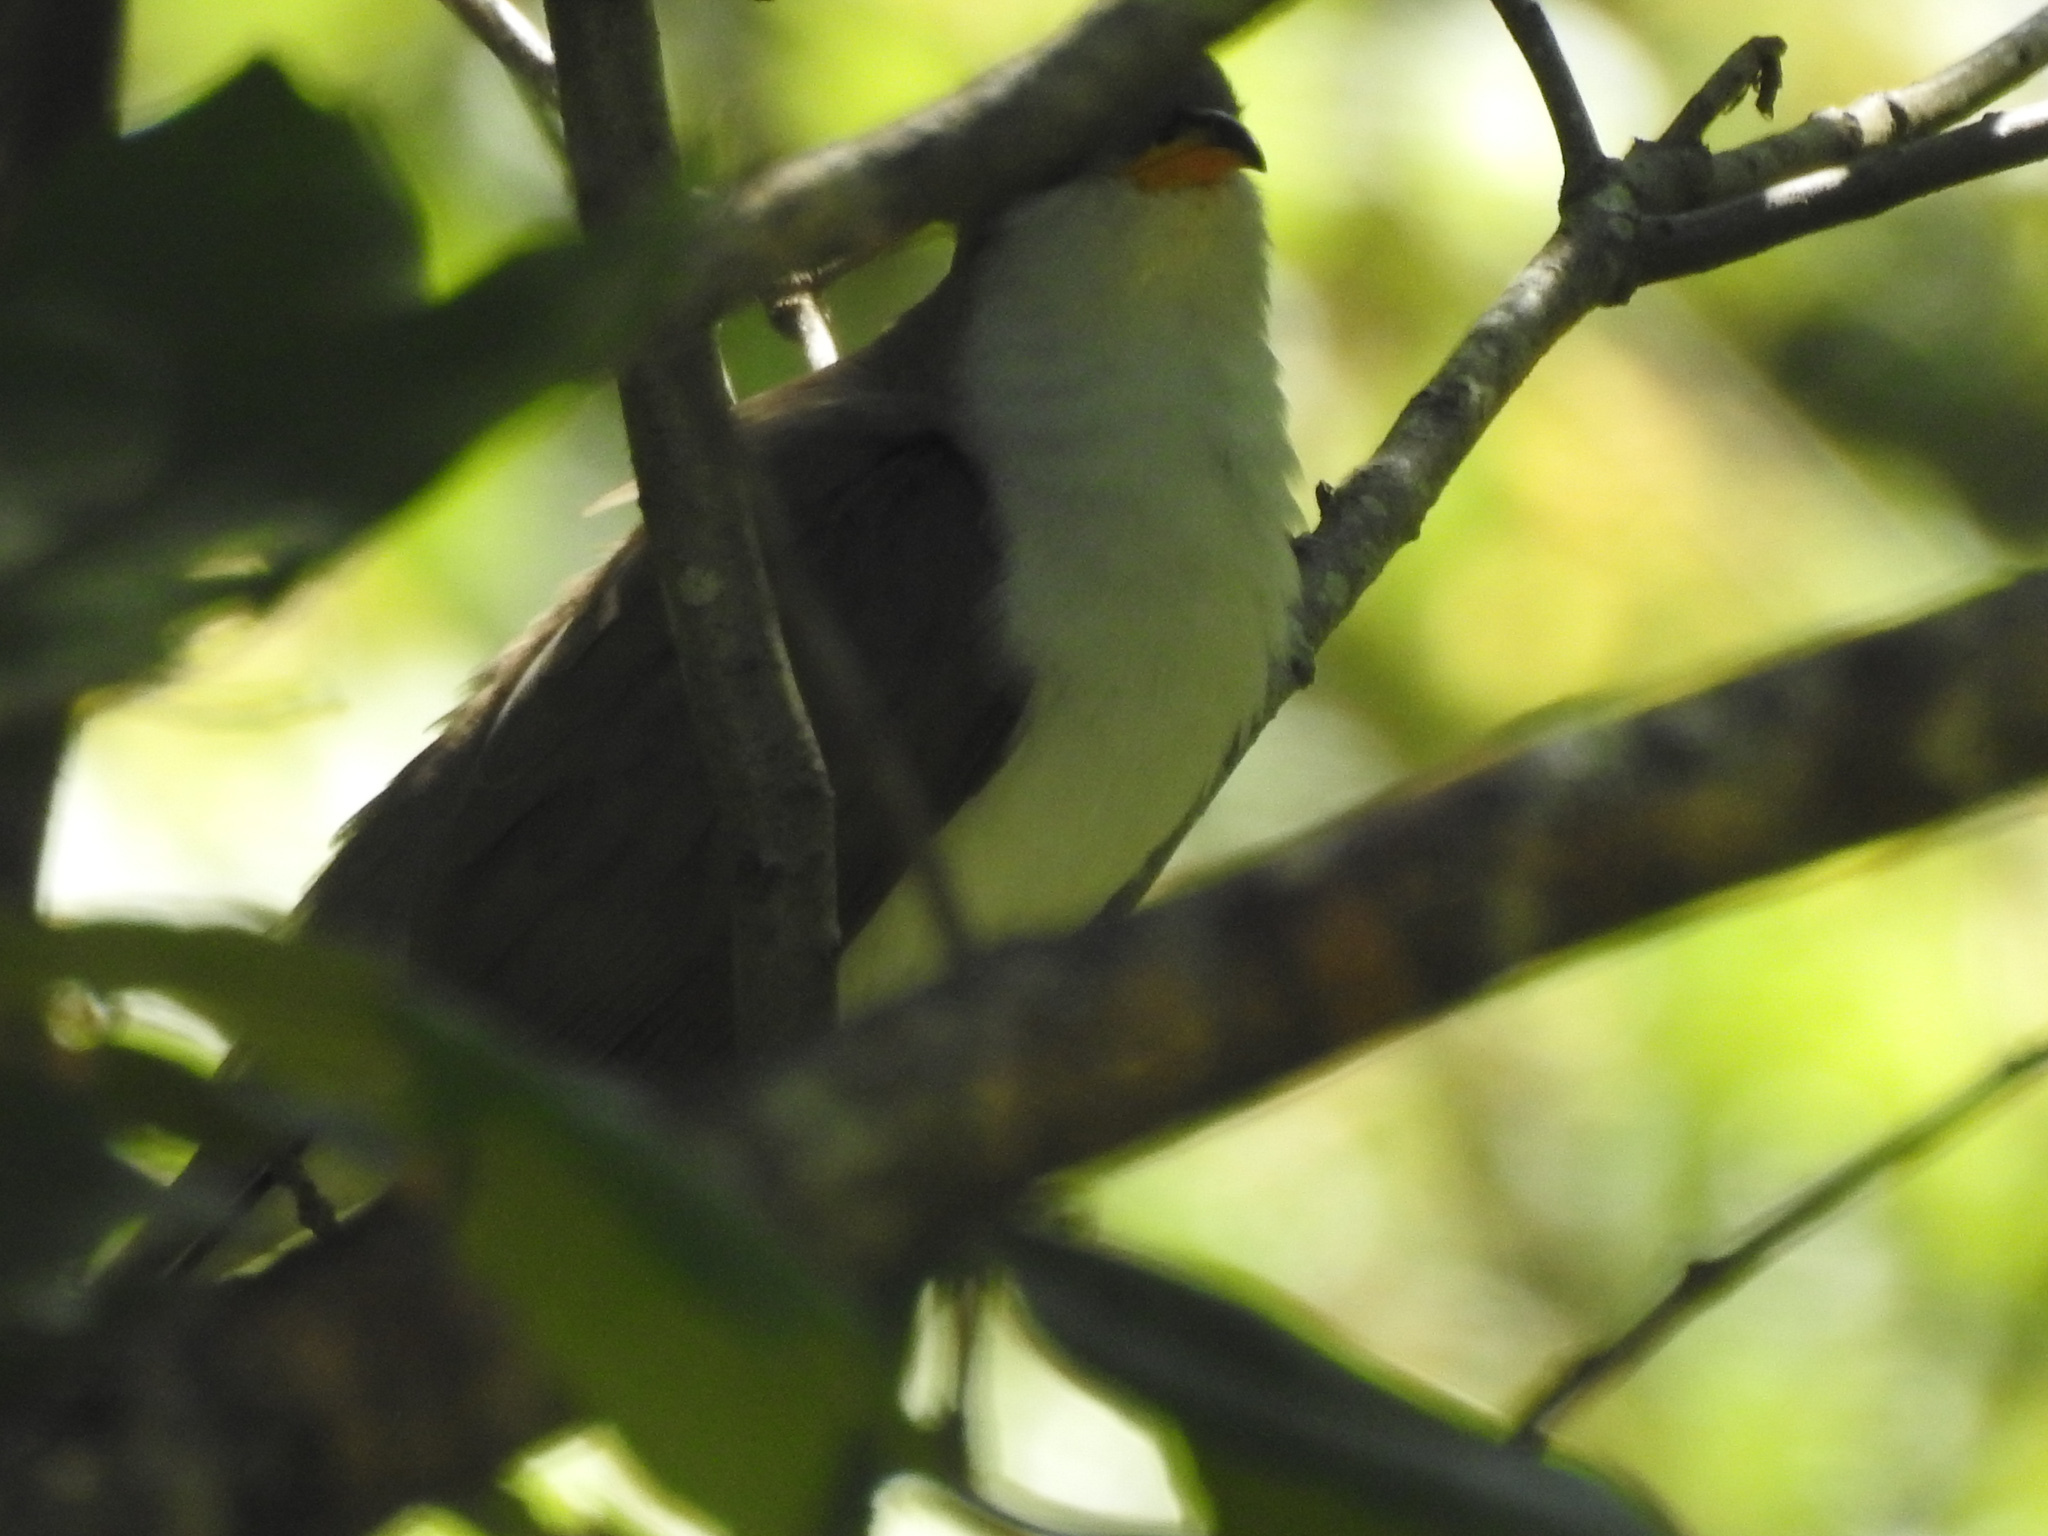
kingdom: Animalia
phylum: Chordata
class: Aves
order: Cuculiformes
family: Cuculidae
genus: Coccyzus
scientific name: Coccyzus americanus
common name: Yellow-billed cuckoo
